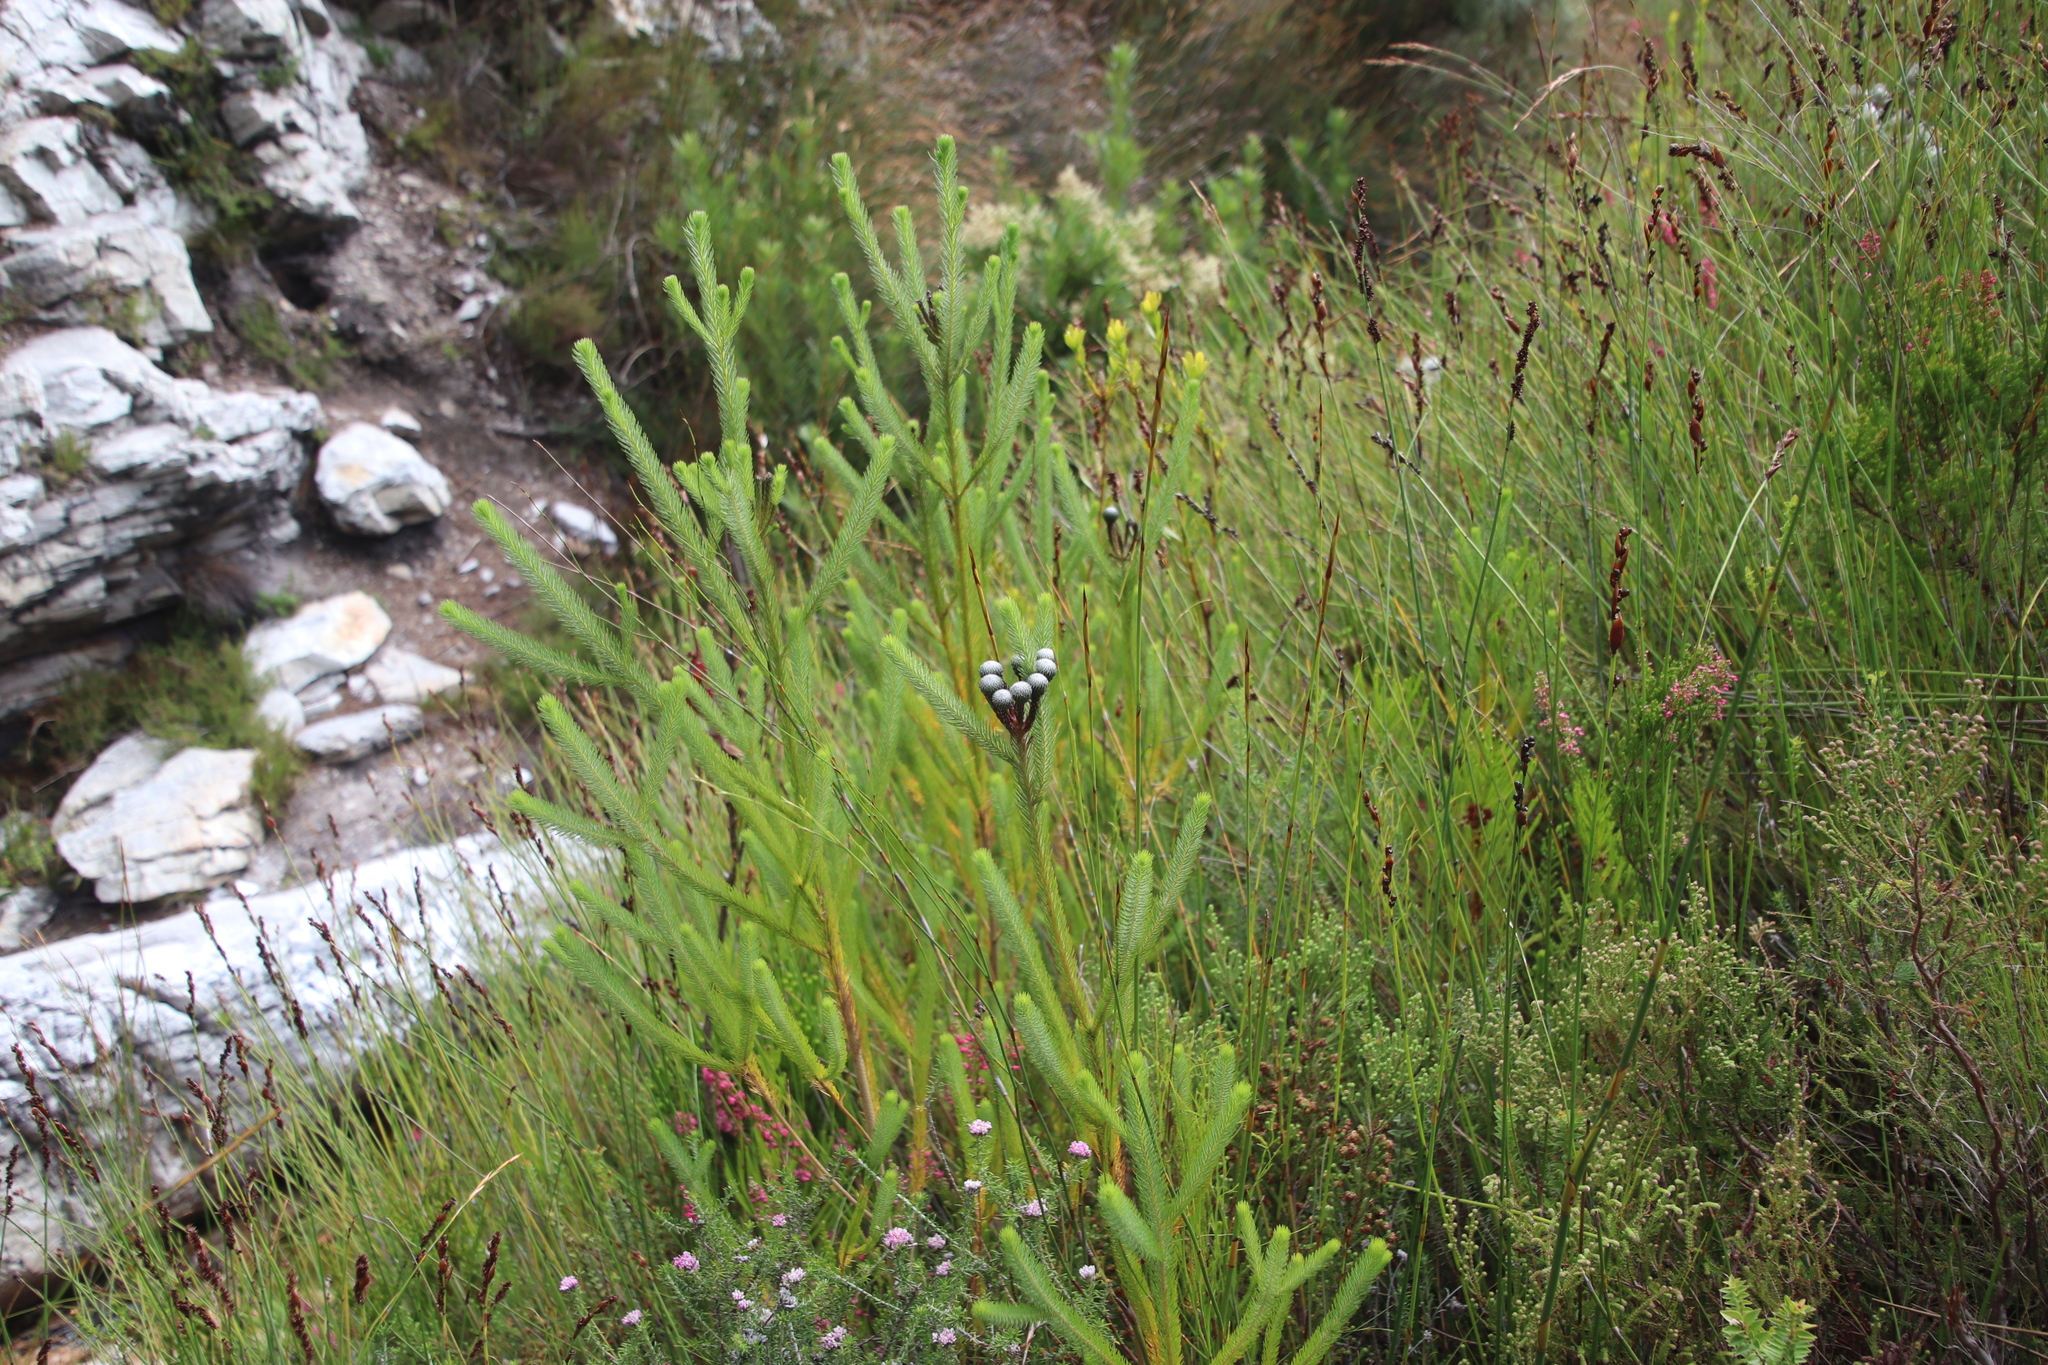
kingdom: Plantae
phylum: Tracheophyta
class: Magnoliopsida
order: Bruniales
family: Bruniaceae
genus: Berzelia
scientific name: Berzelia albiflora
